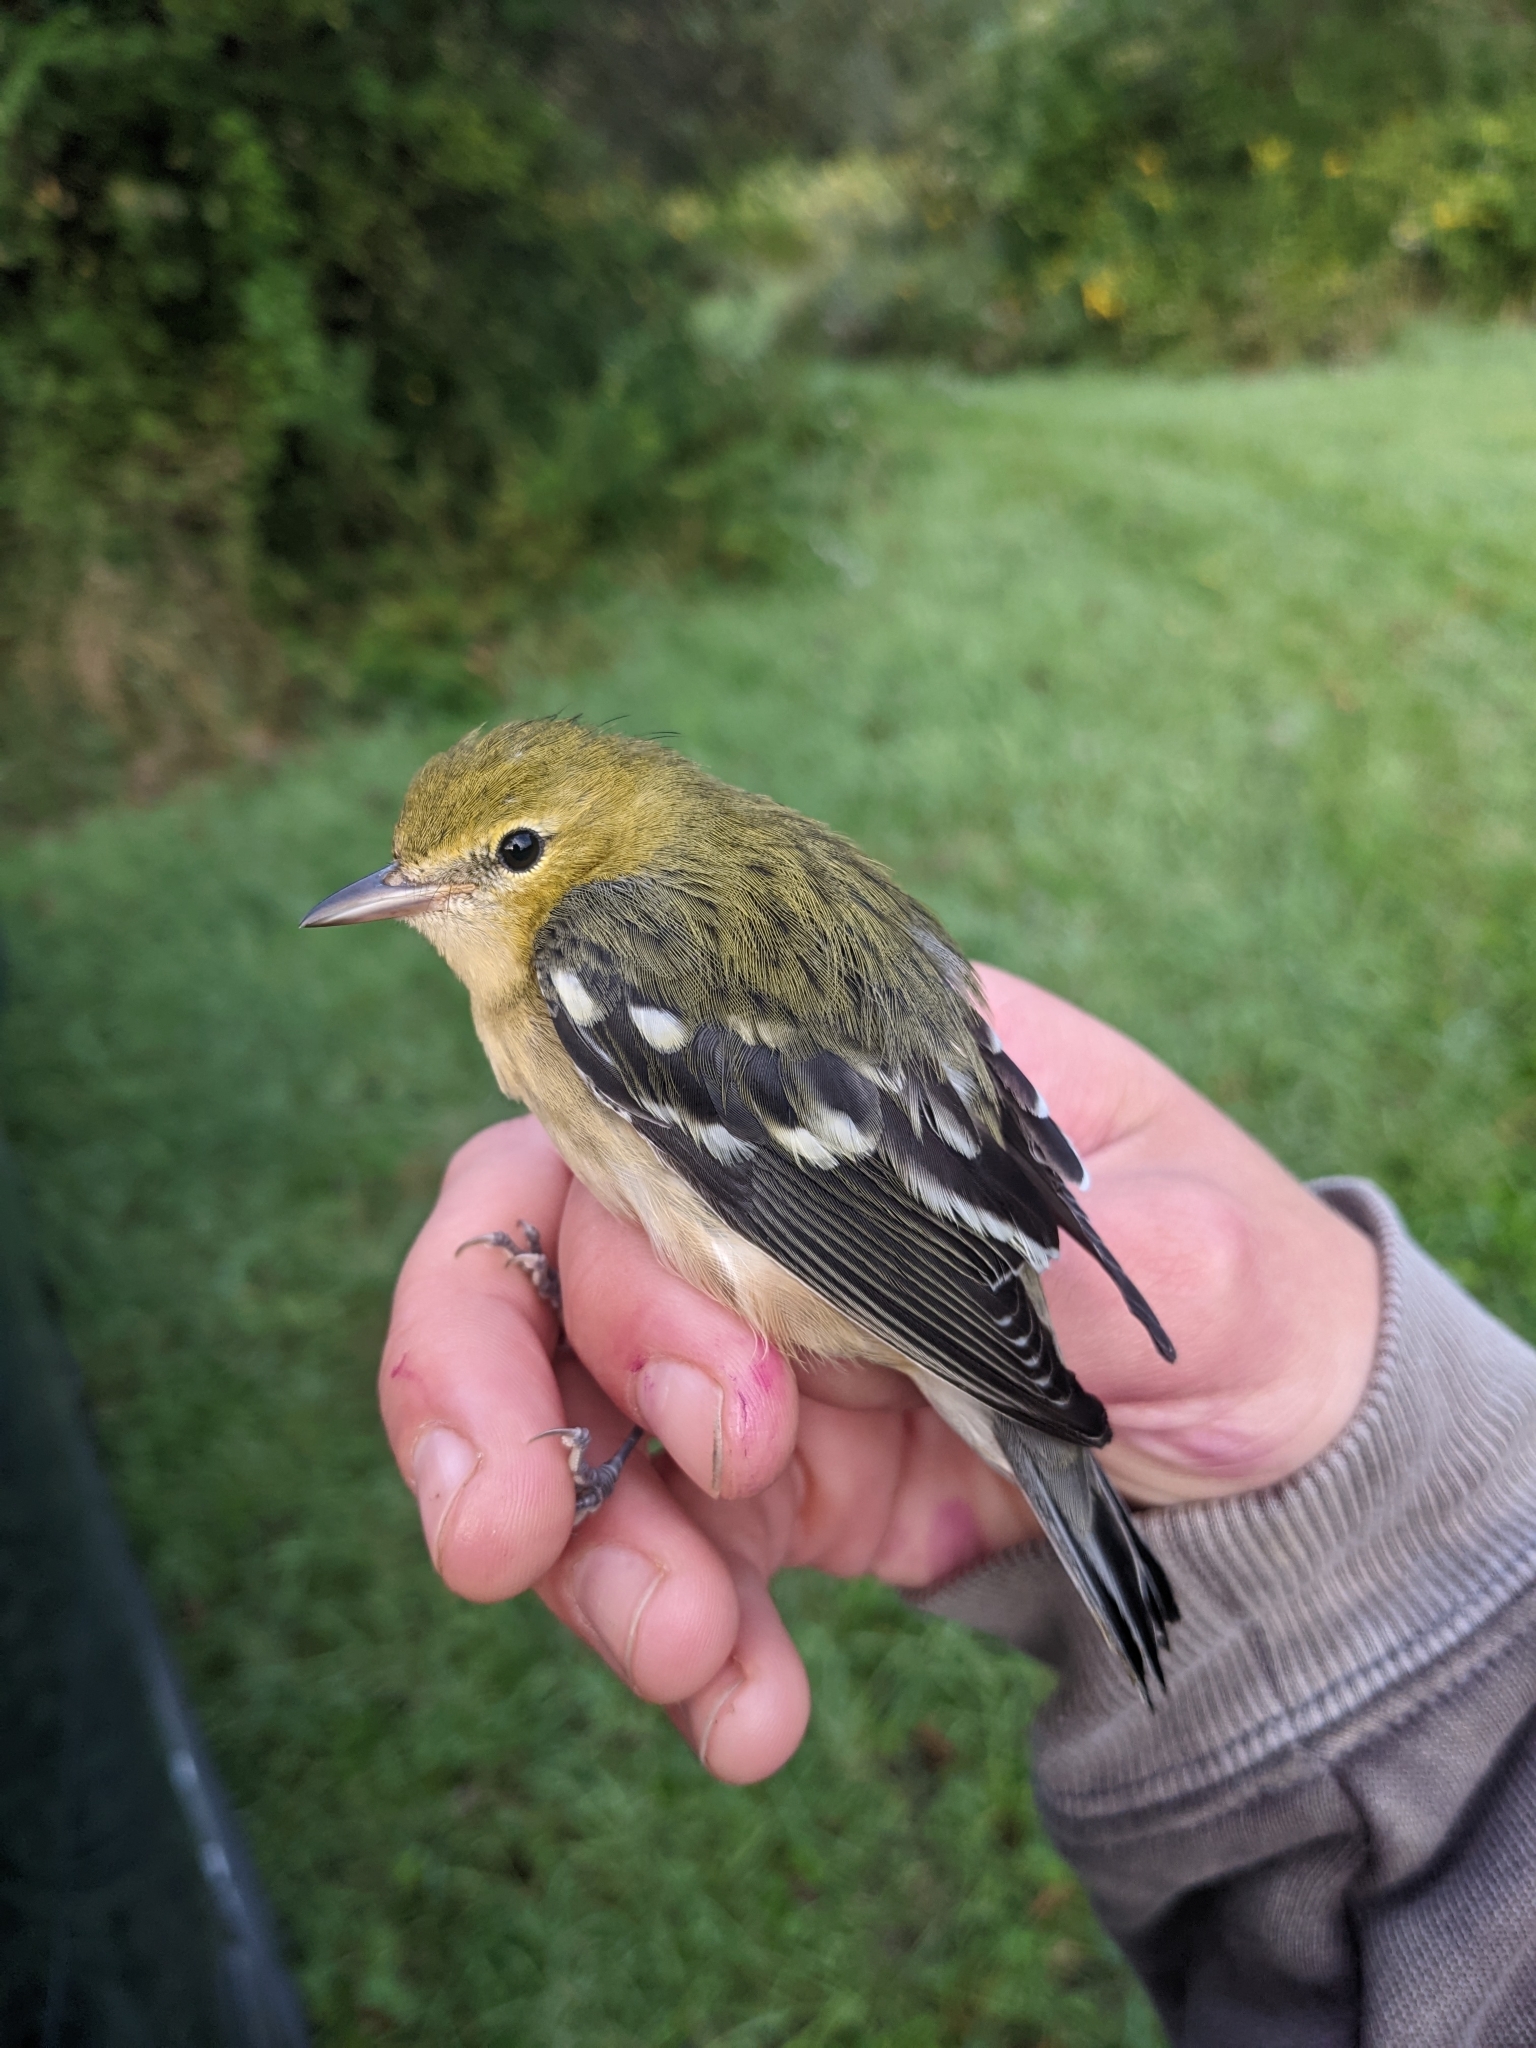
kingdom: Animalia
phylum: Chordata
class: Aves
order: Passeriformes
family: Parulidae
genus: Setophaga
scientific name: Setophaga castanea
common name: Bay-breasted warbler
